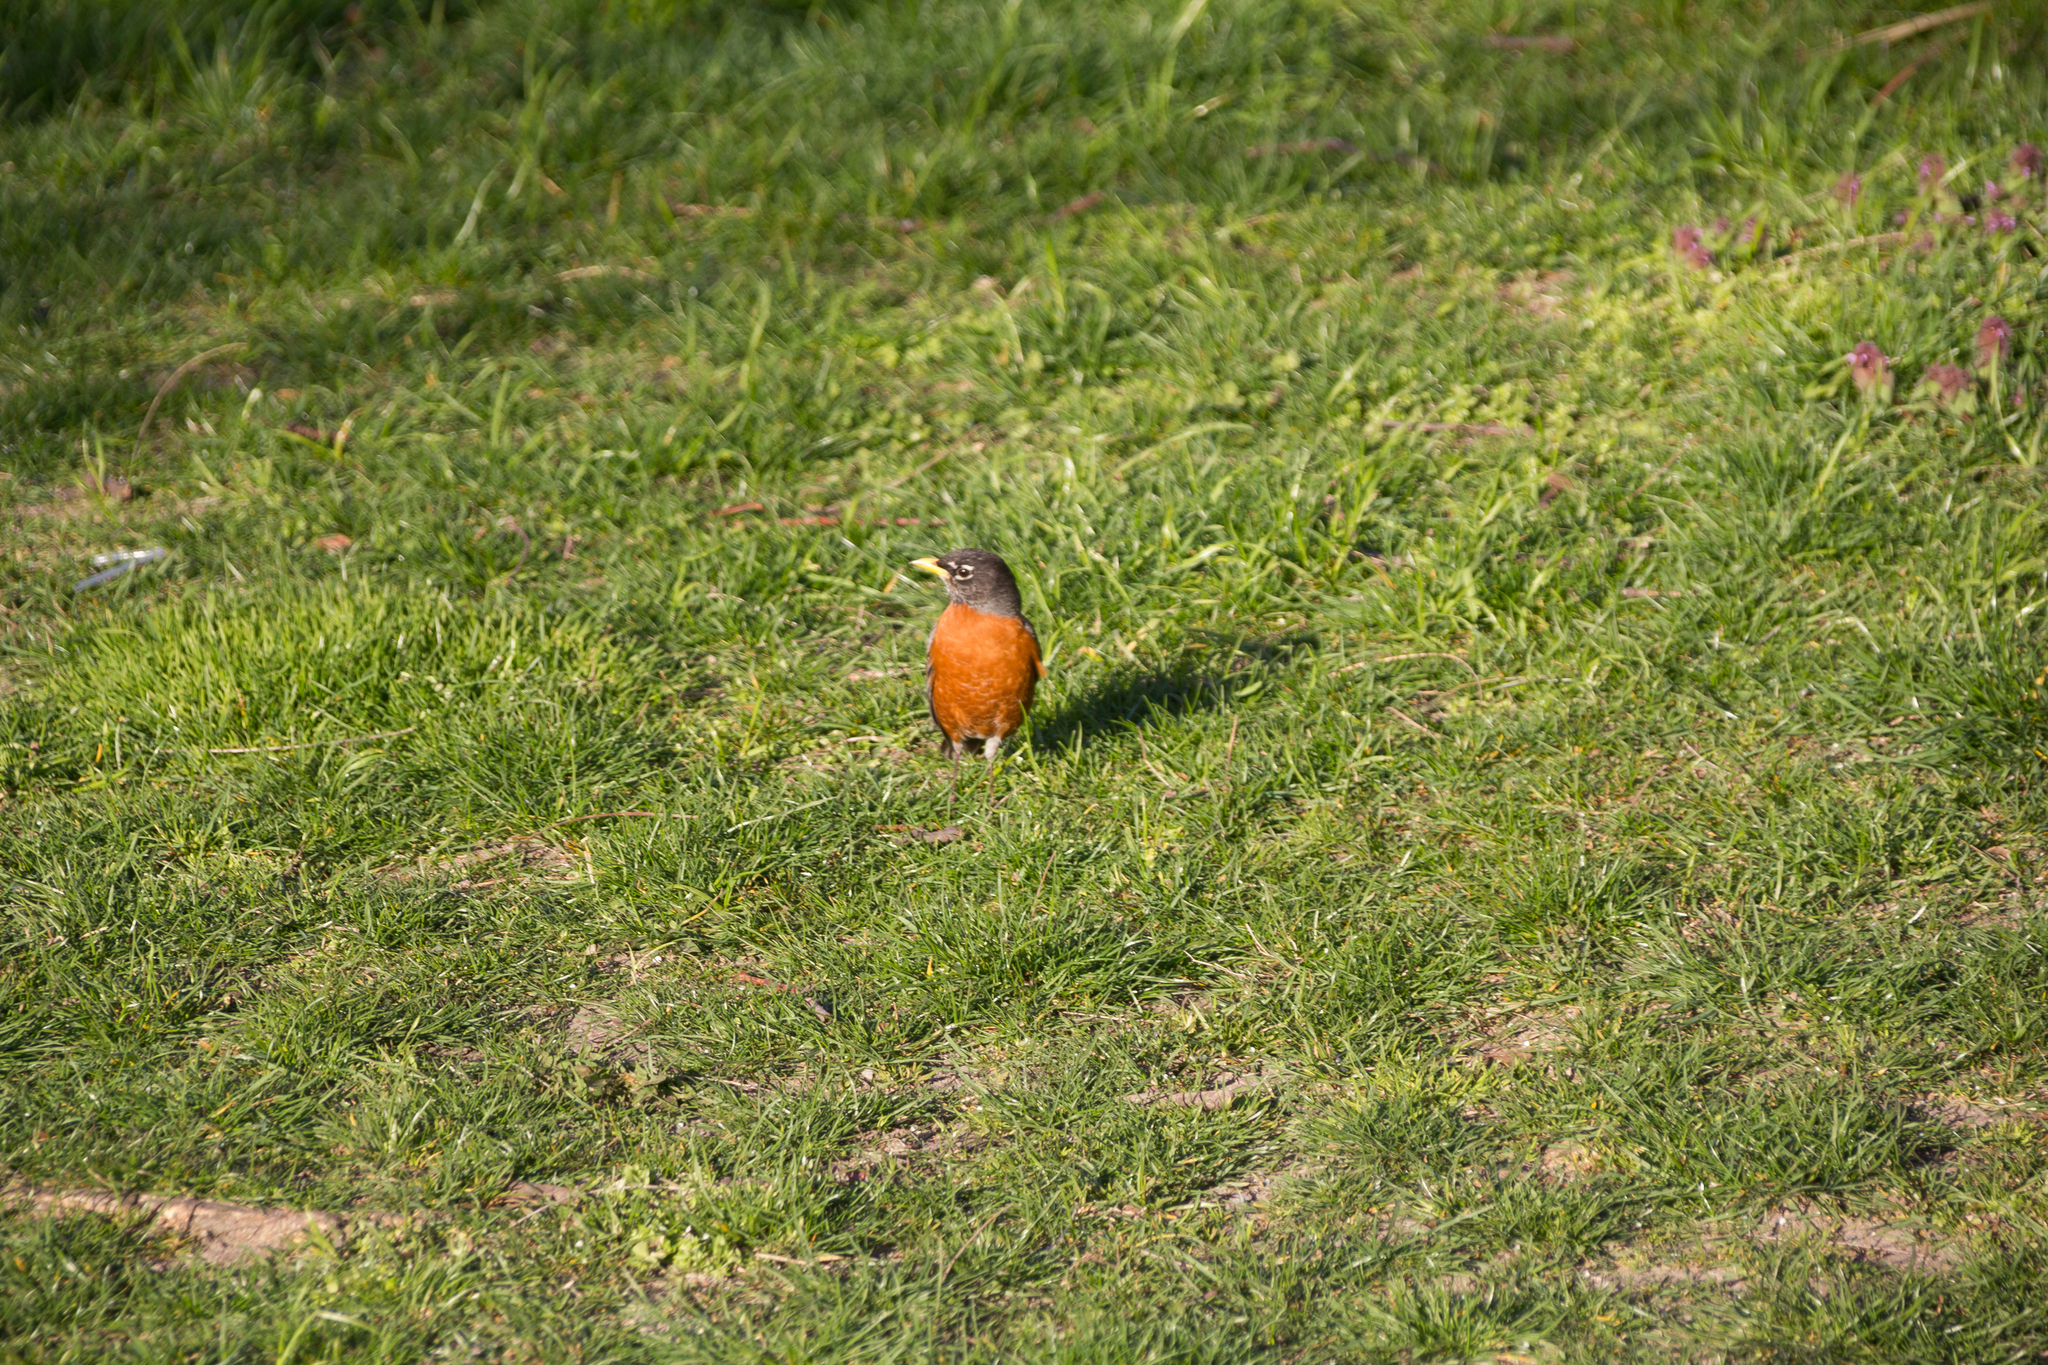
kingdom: Animalia
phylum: Chordata
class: Aves
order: Passeriformes
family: Turdidae
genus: Turdus
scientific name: Turdus migratorius
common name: American robin
